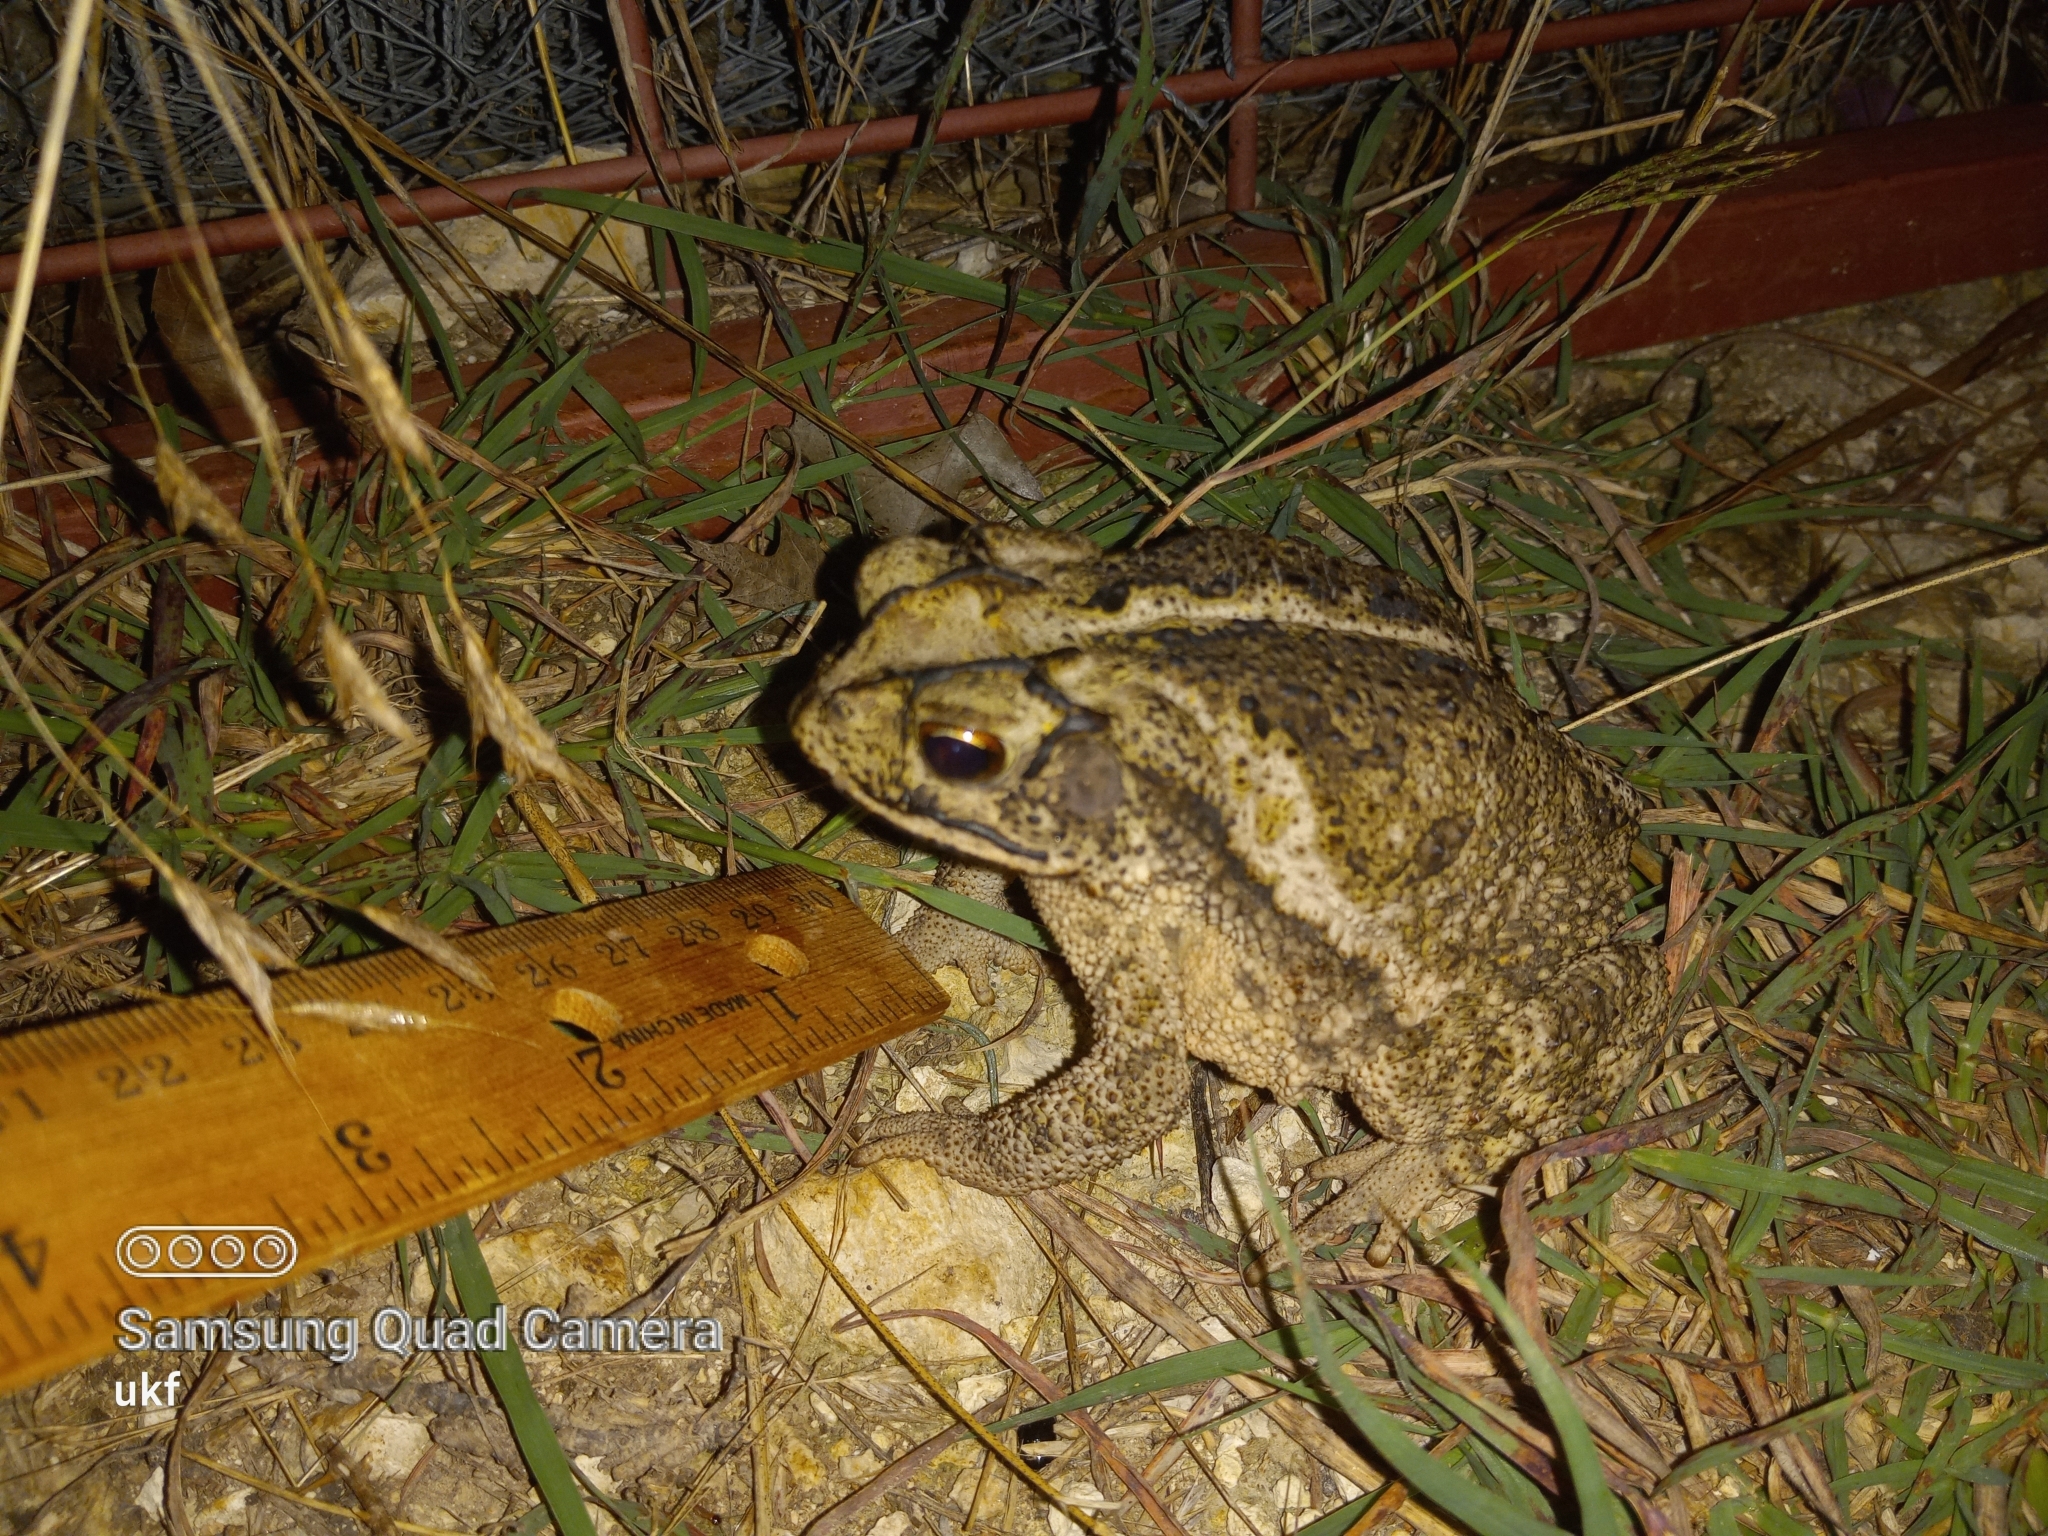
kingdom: Animalia
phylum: Chordata
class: Amphibia
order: Anura
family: Bufonidae
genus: Incilius
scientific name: Incilius nebulifer
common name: Gulf coast toad
